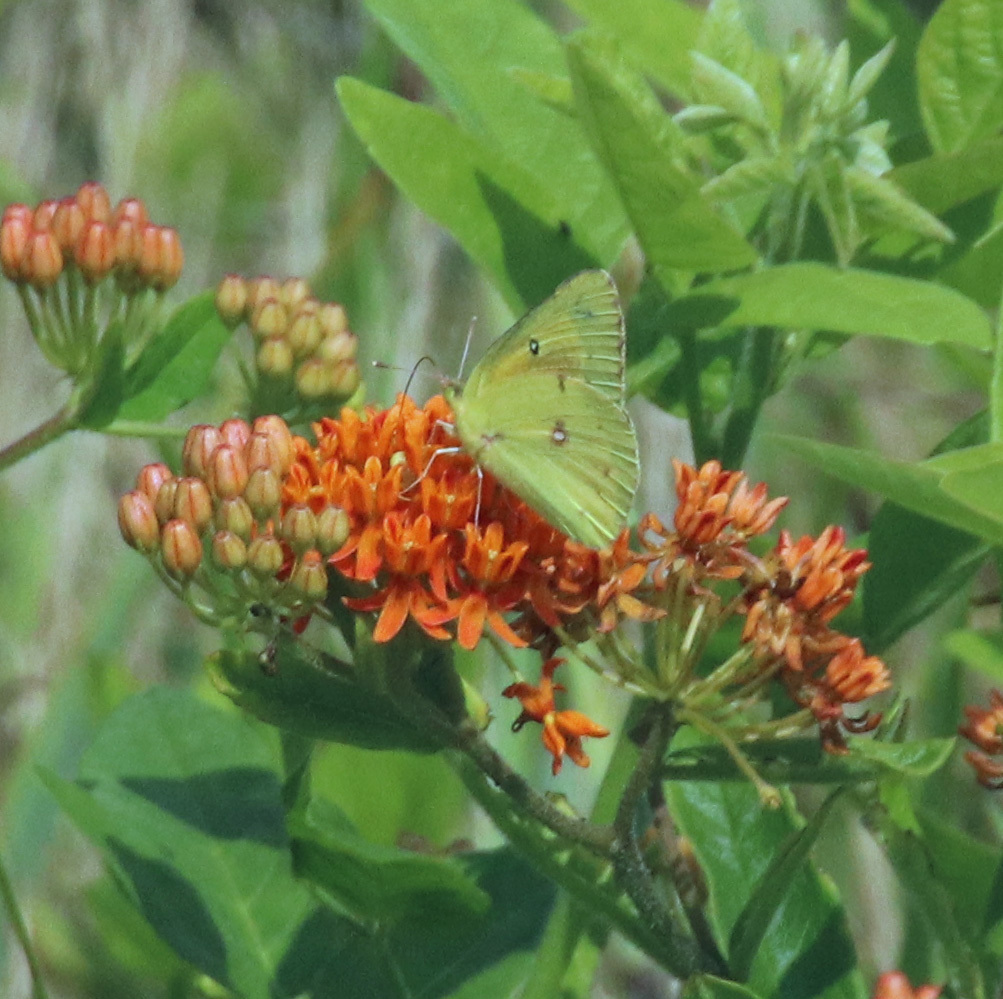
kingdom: Animalia
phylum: Arthropoda
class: Insecta
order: Lepidoptera
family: Pieridae
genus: Colias
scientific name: Colias eurytheme
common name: Alfalfa butterfly
